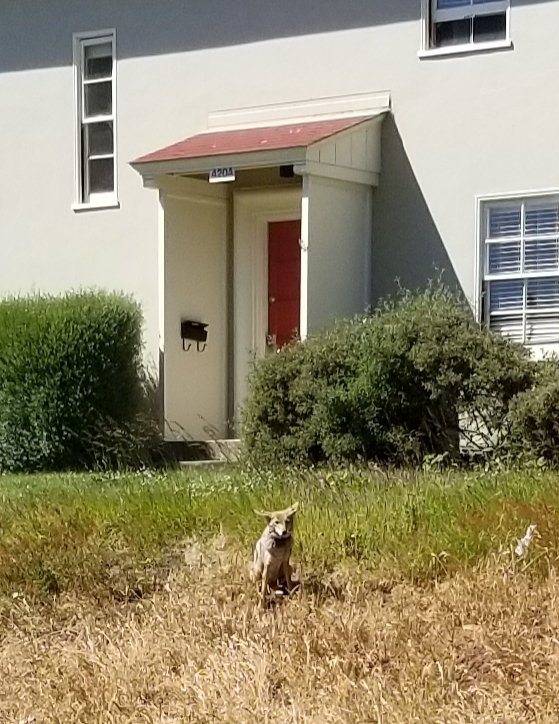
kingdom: Animalia
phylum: Chordata
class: Mammalia
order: Carnivora
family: Canidae
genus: Canis
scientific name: Canis latrans
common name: Coyote
